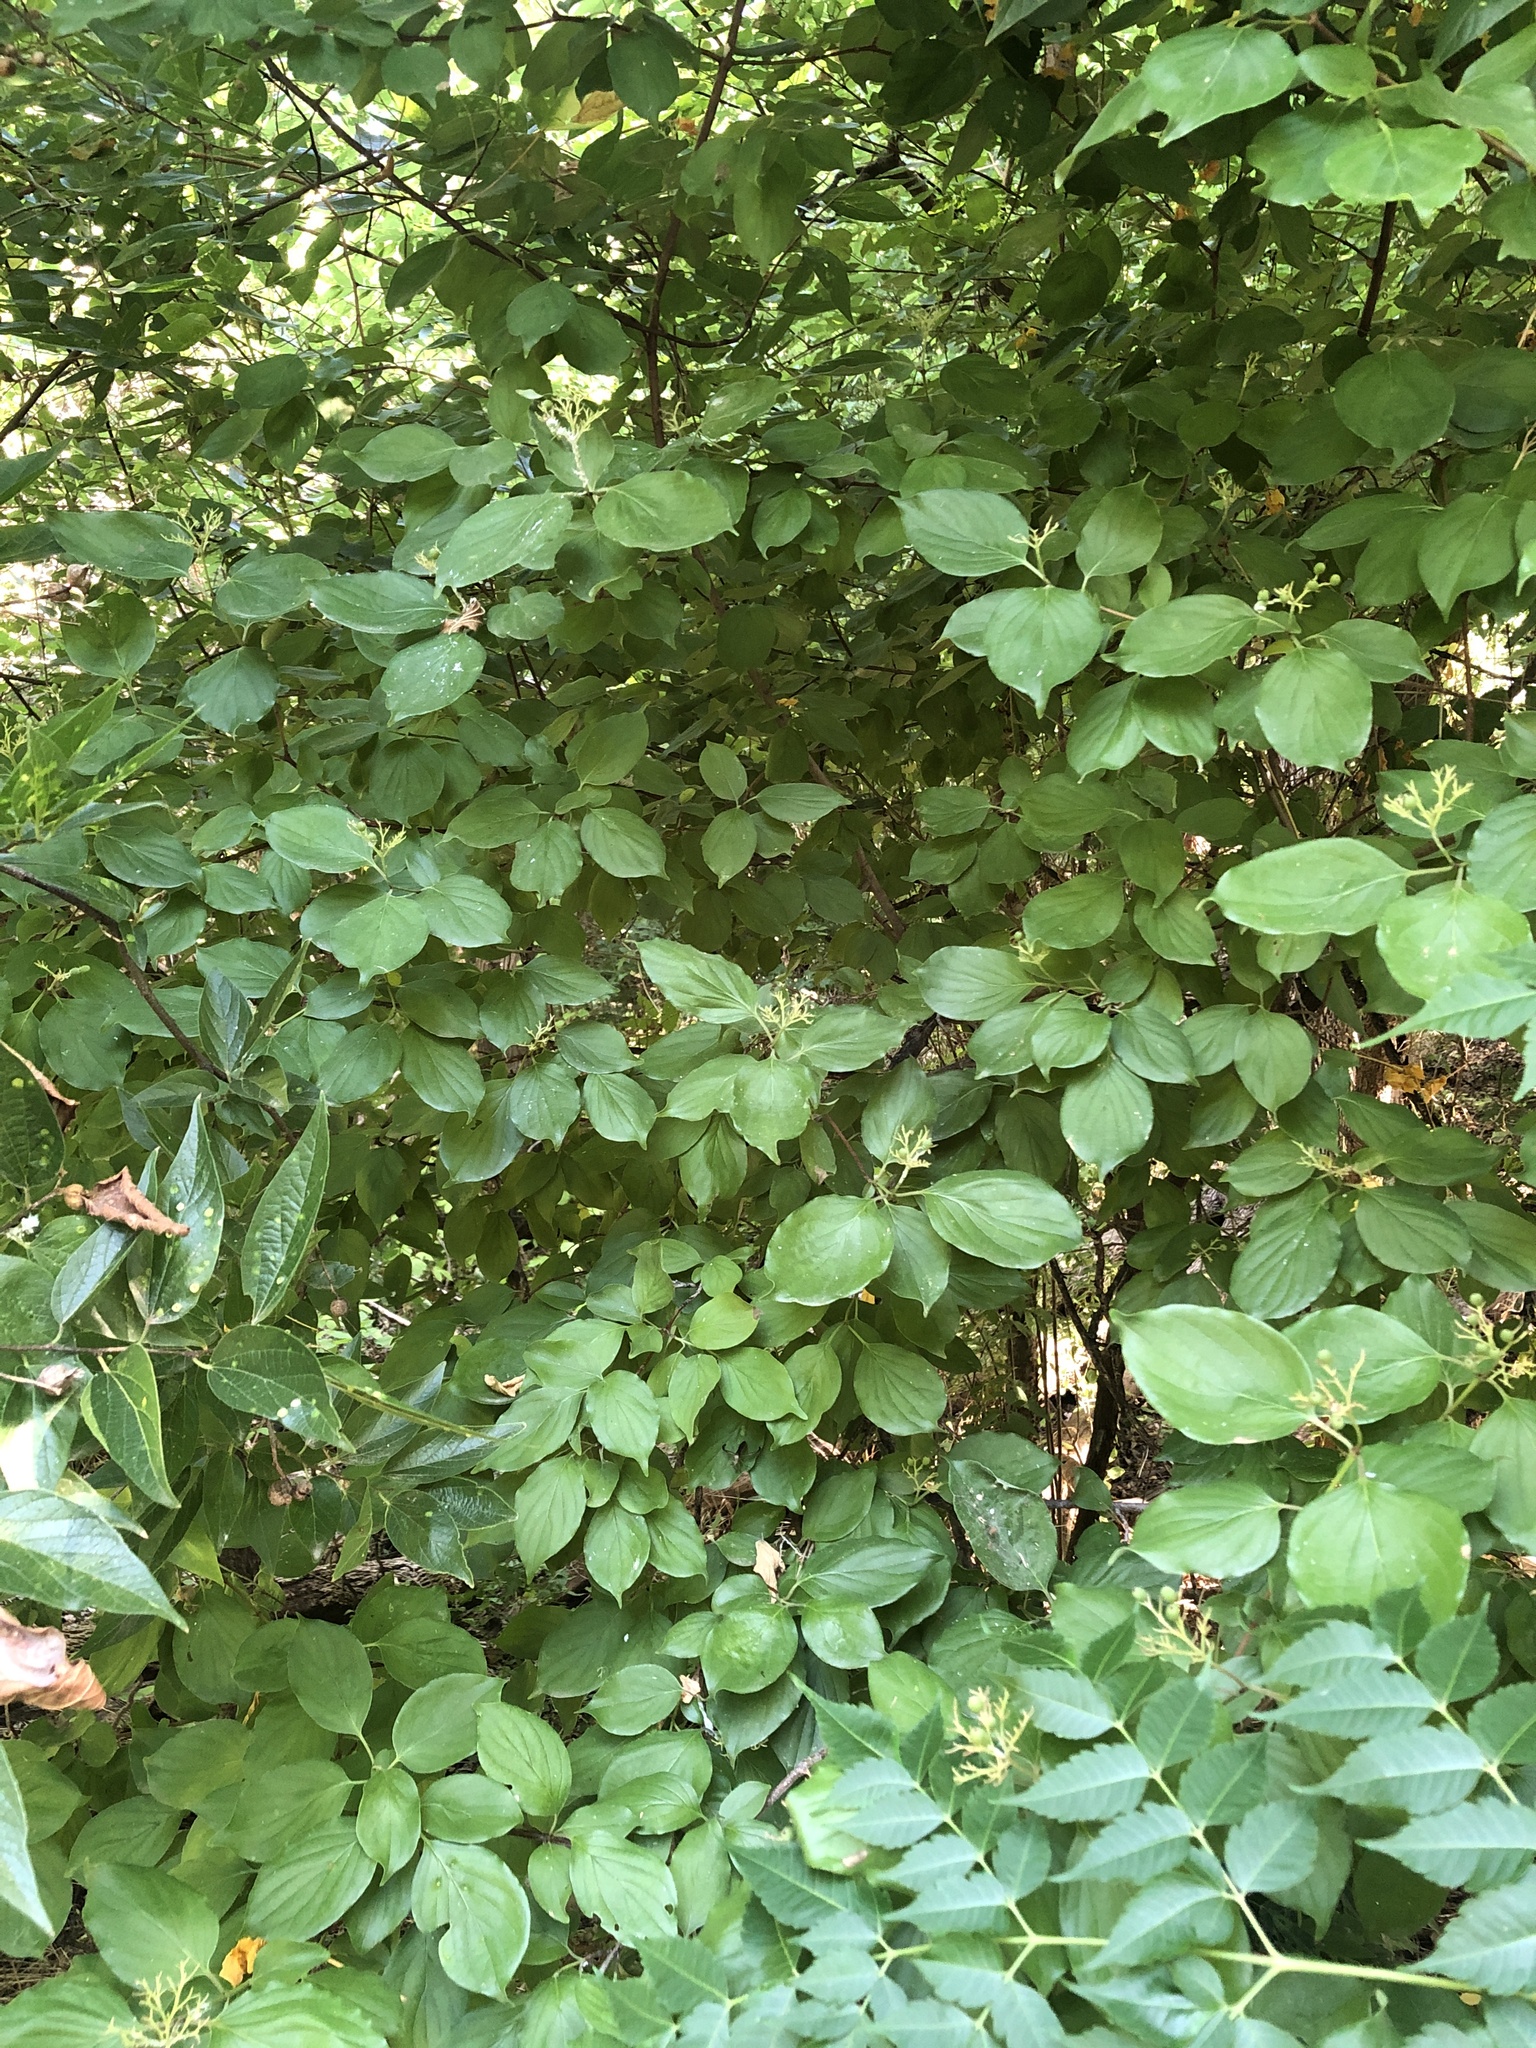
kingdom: Plantae
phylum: Tracheophyta
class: Magnoliopsida
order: Cornales
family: Cornaceae
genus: Cornus
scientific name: Cornus drummondii
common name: Rough-leaf dogwood
